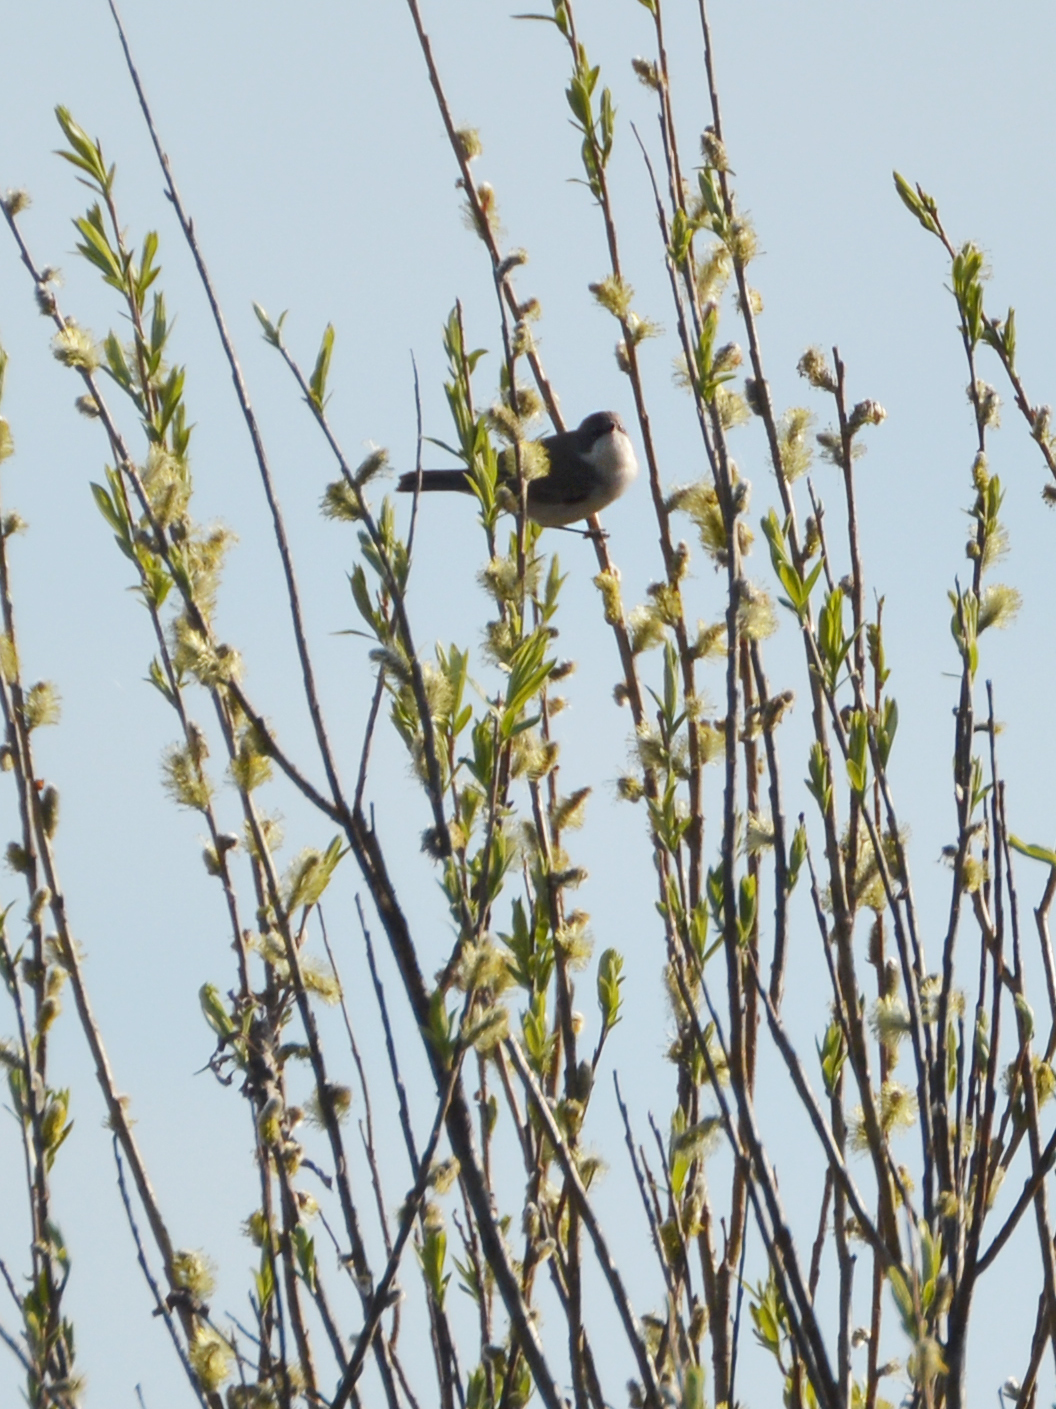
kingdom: Animalia
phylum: Chordata
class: Aves
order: Passeriformes
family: Sylviidae
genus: Sylvia
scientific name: Sylvia curruca
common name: Lesser whitethroat
